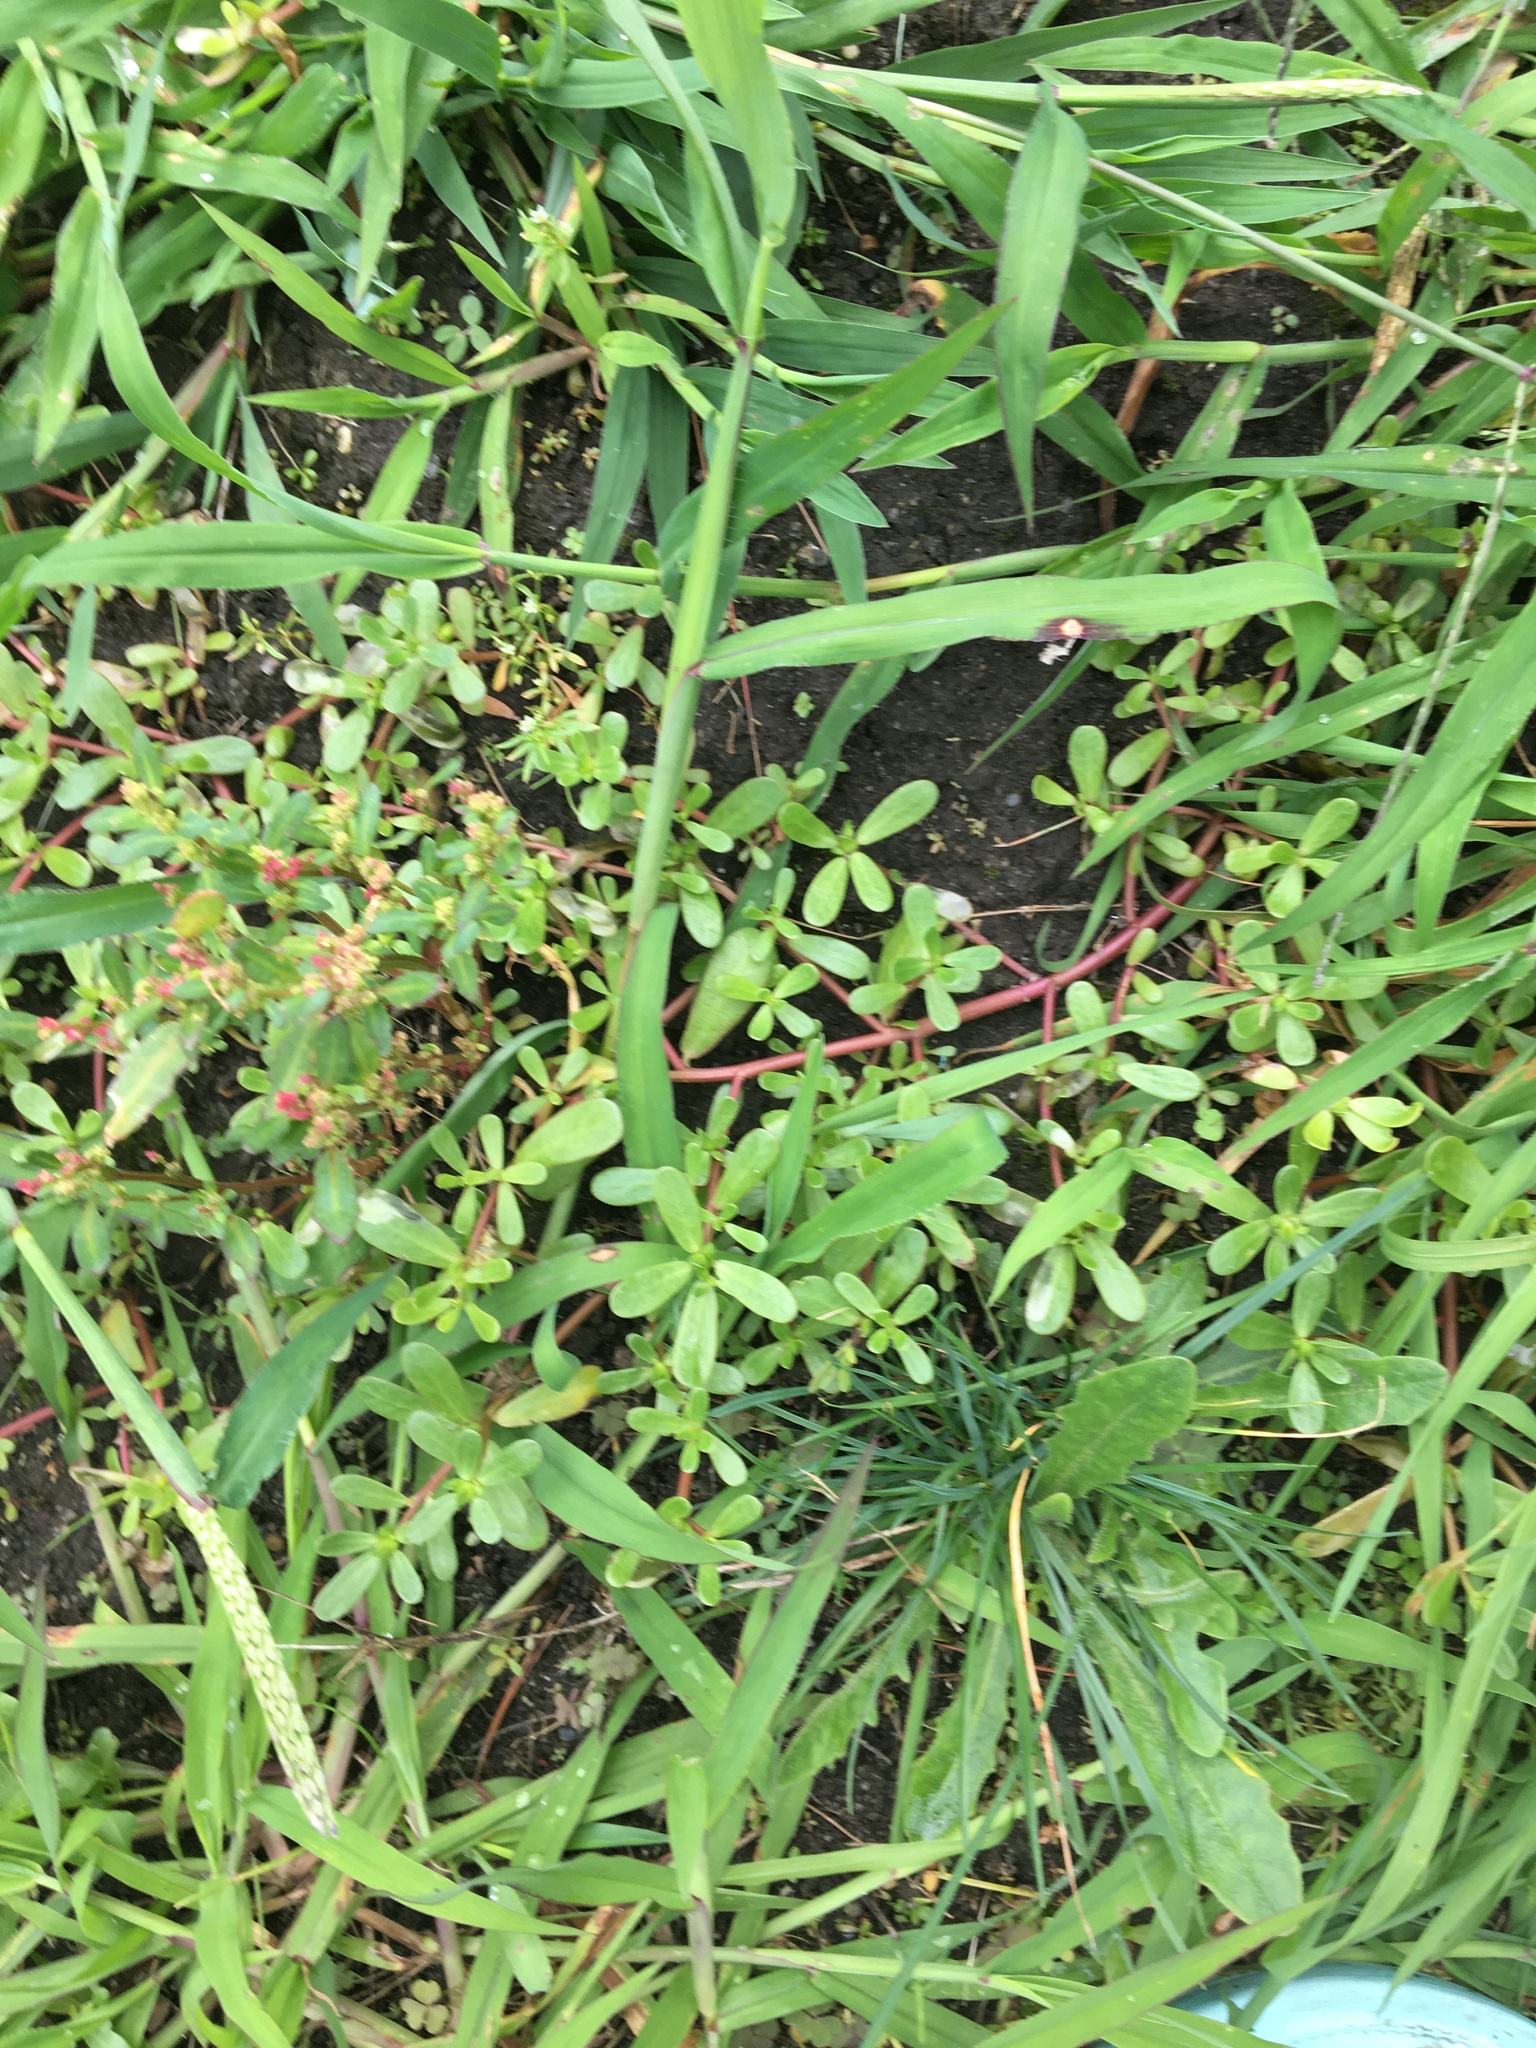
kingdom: Plantae
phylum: Tracheophyta
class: Magnoliopsida
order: Caryophyllales
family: Portulacaceae
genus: Portulaca
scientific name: Portulaca oleracea
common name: Common purslane
